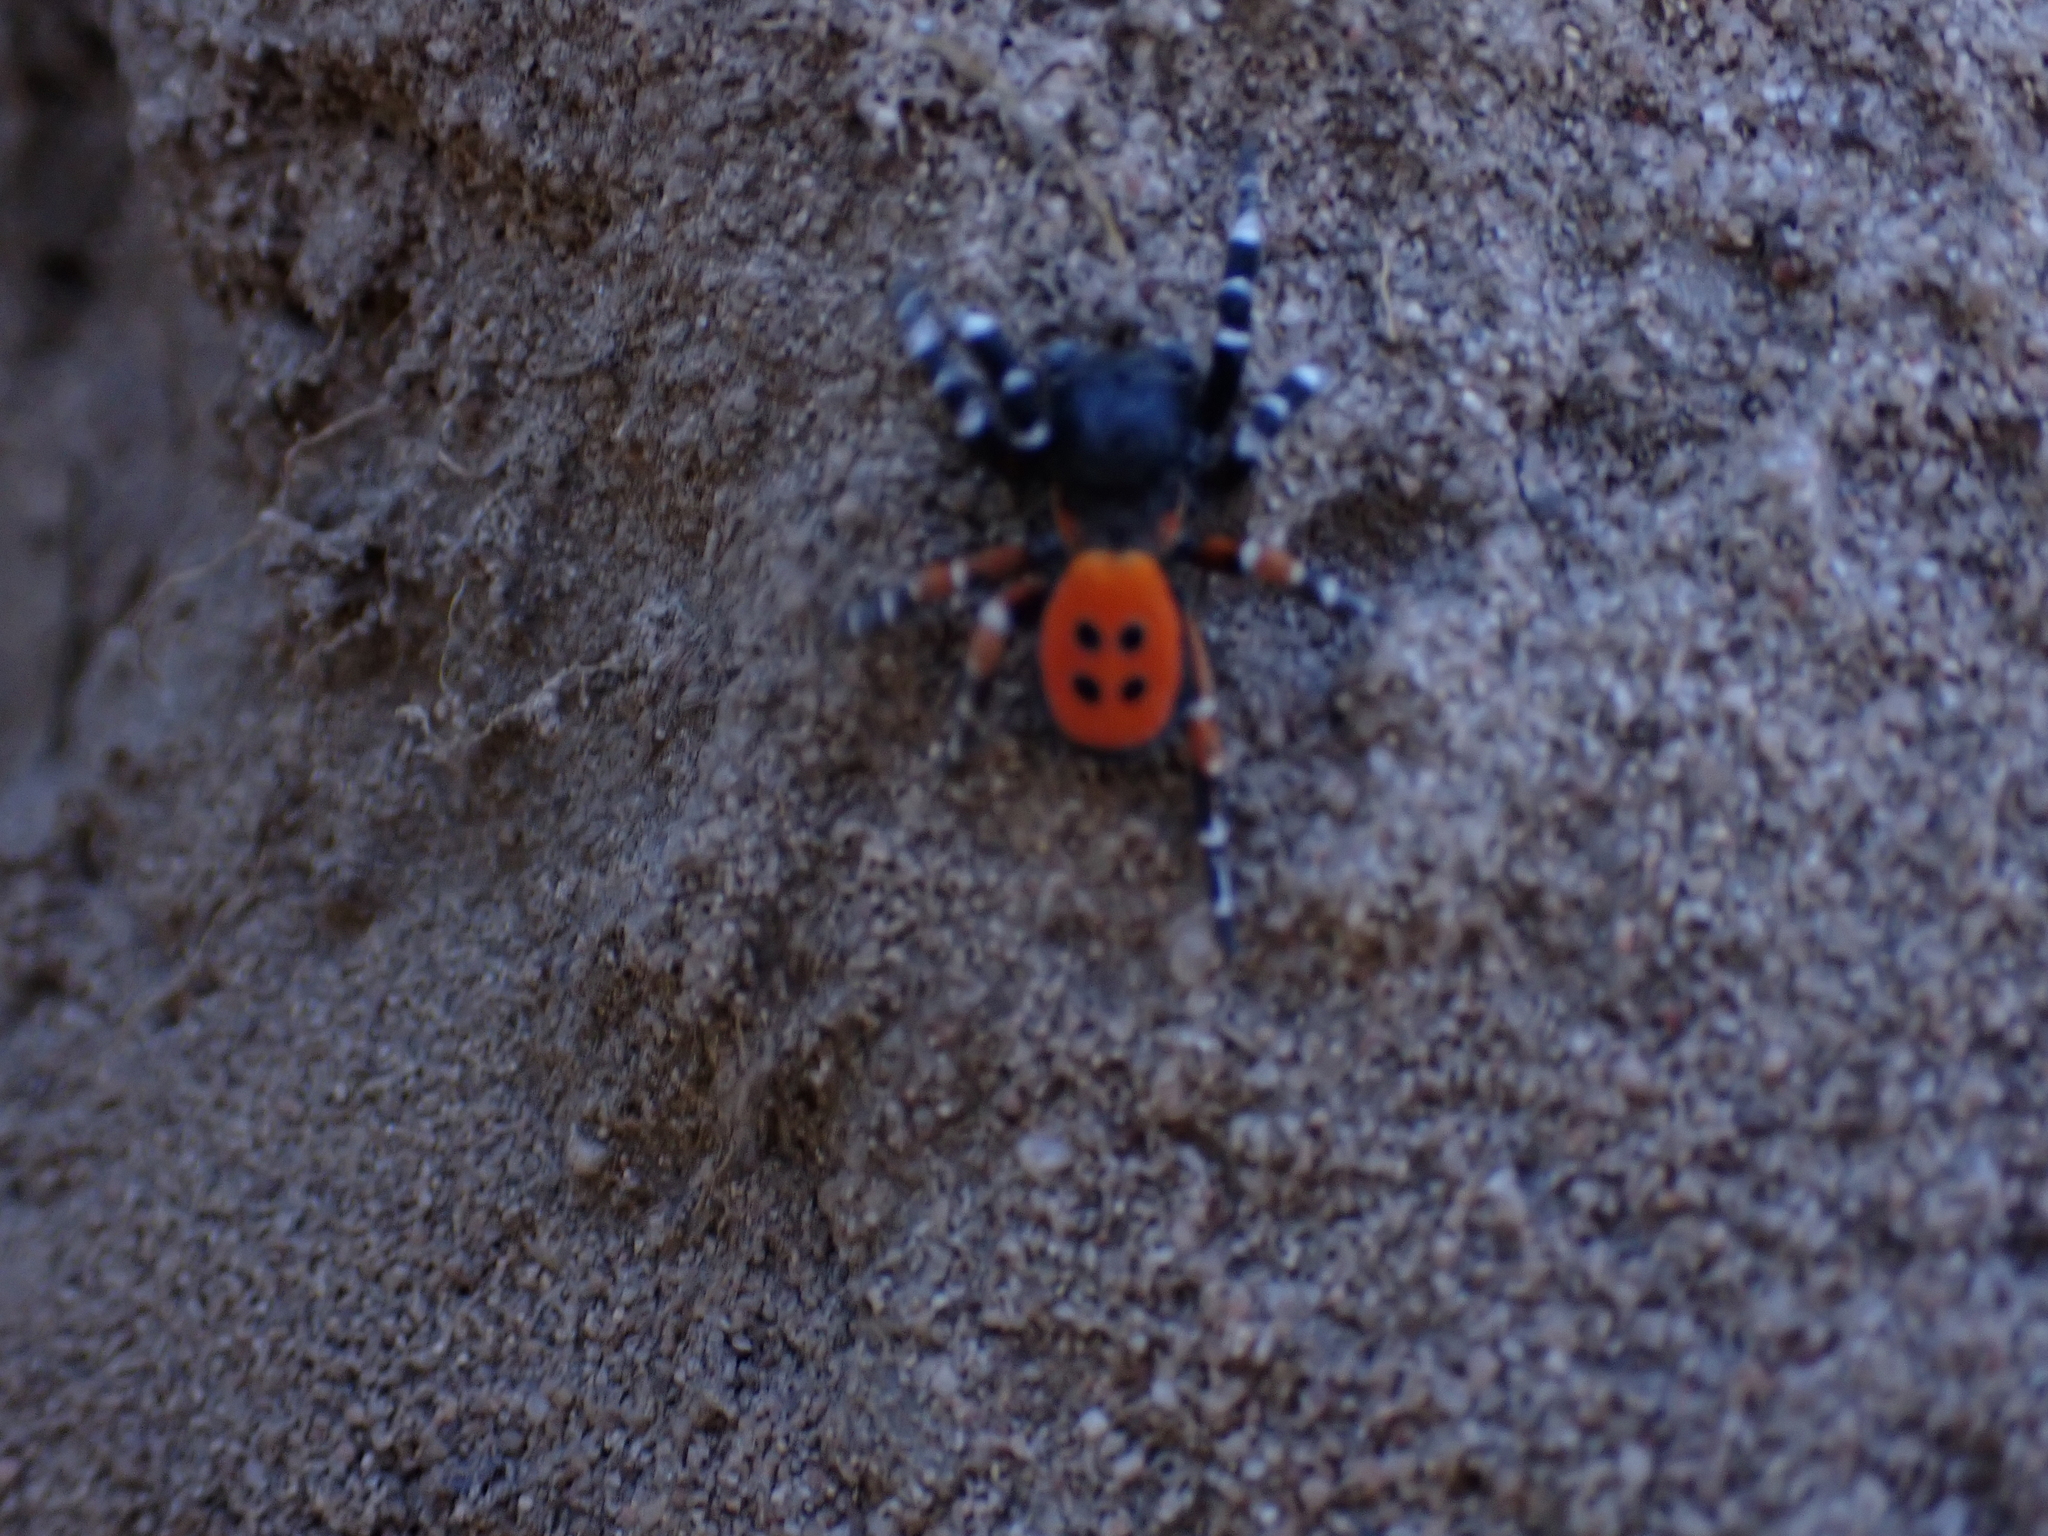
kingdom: Animalia
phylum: Arthropoda
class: Arachnida
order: Araneae
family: Eresidae
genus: Eresus
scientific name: Eresus kollari
